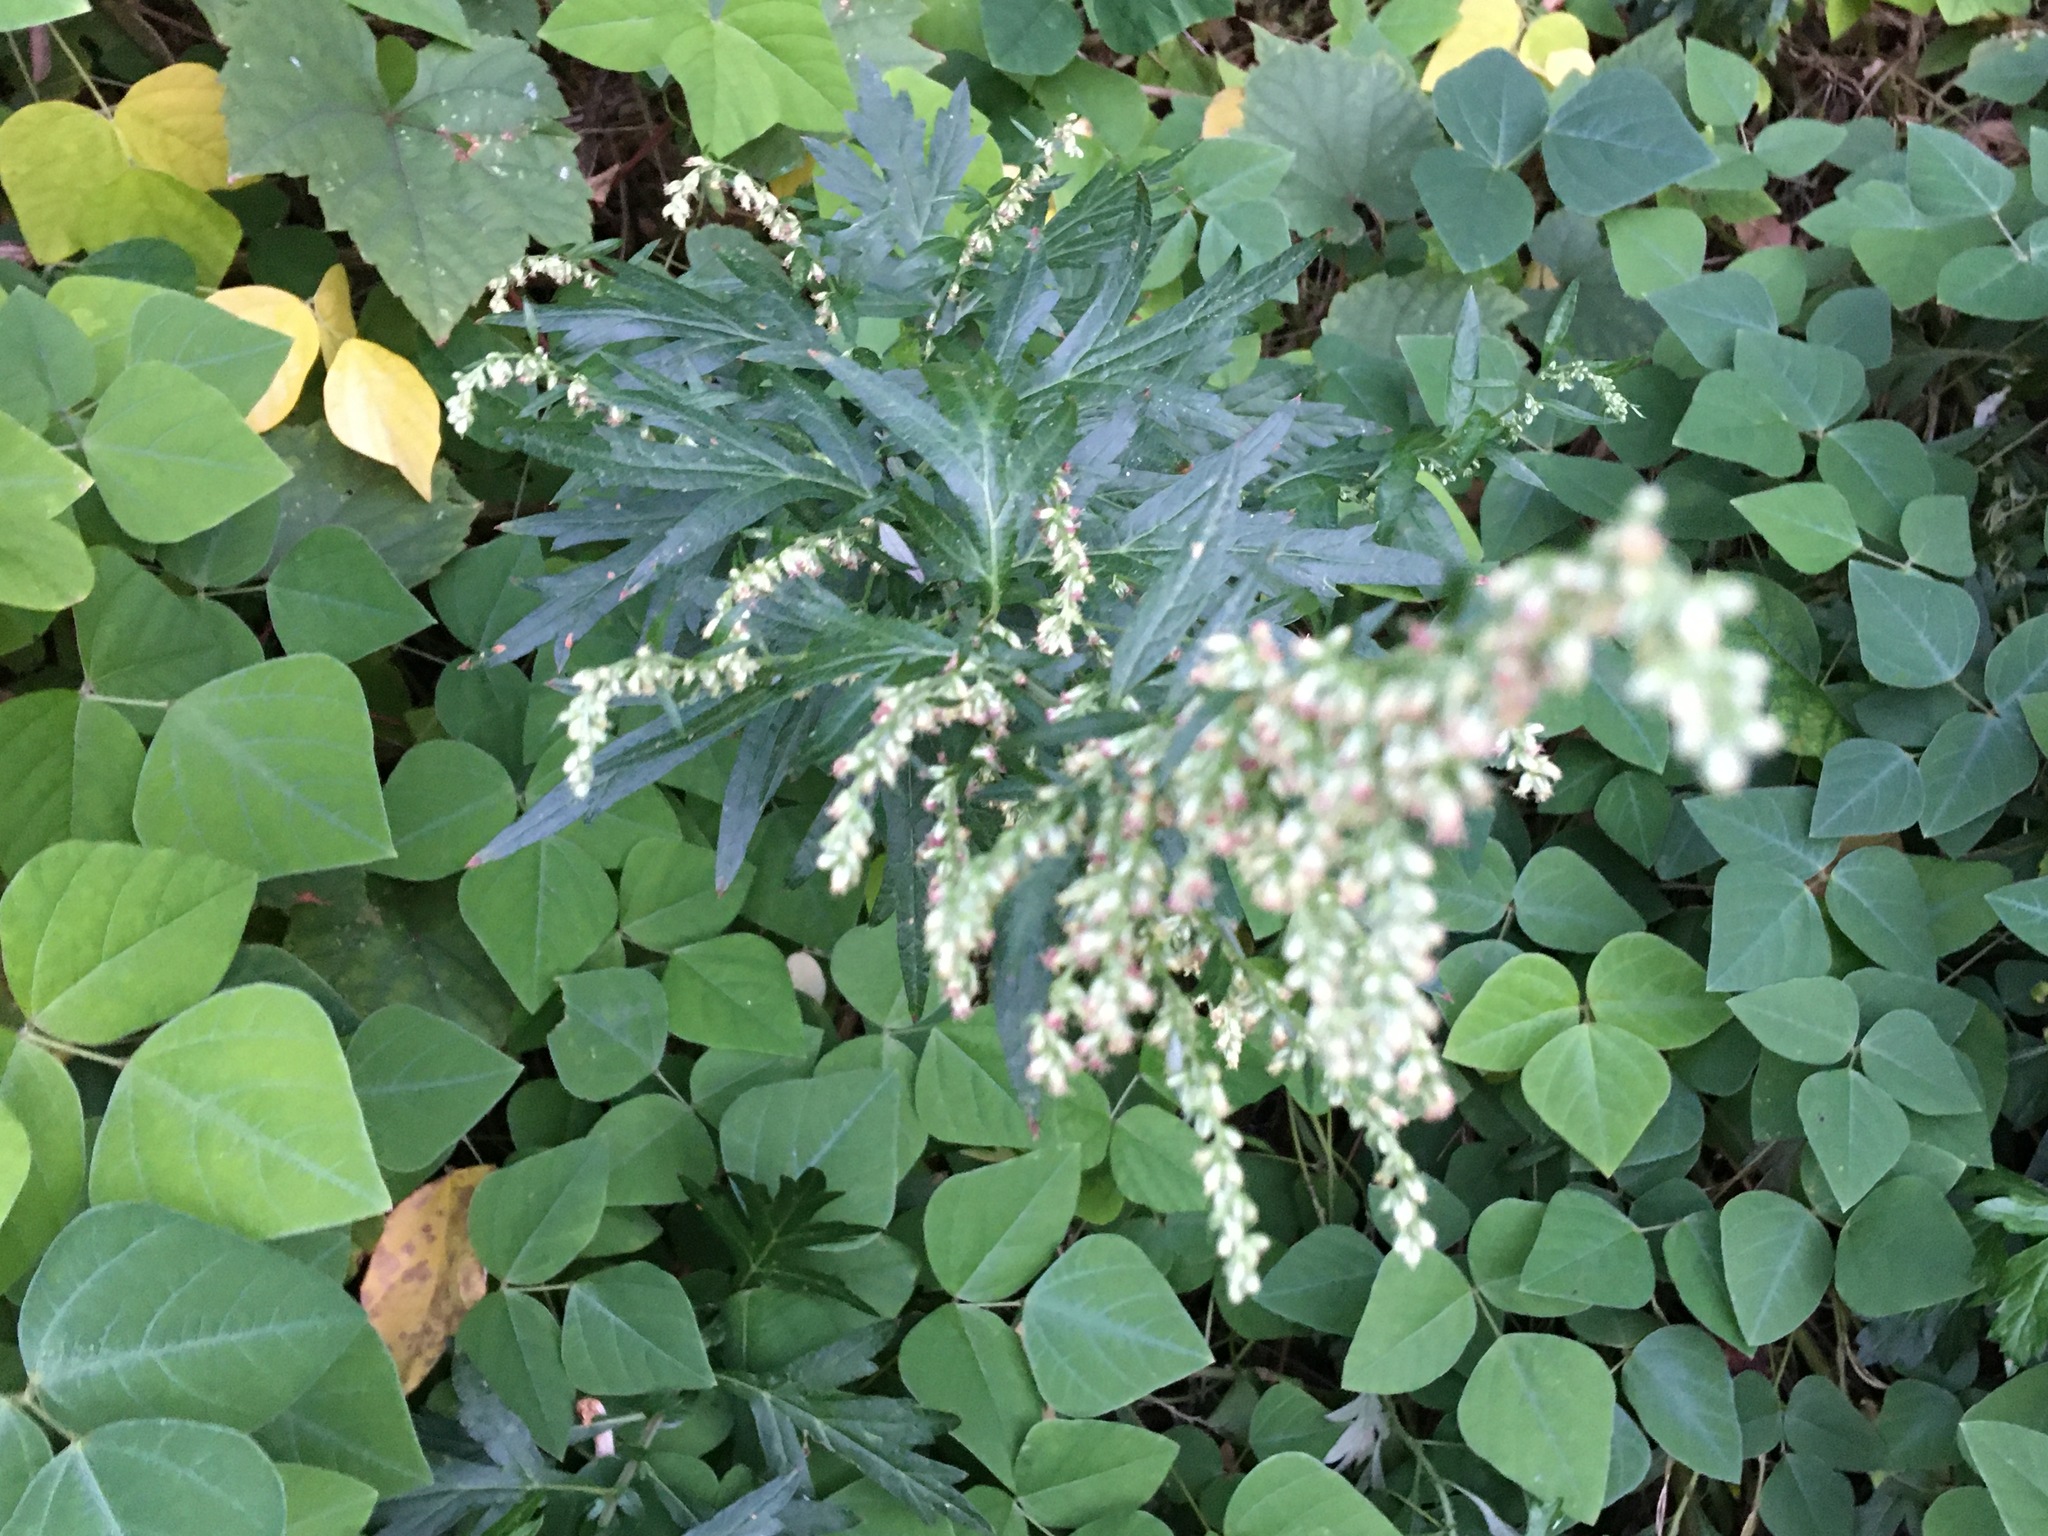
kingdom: Plantae
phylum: Tracheophyta
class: Magnoliopsida
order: Asterales
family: Asteraceae
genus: Artemisia
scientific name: Artemisia vulgaris
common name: Mugwort
